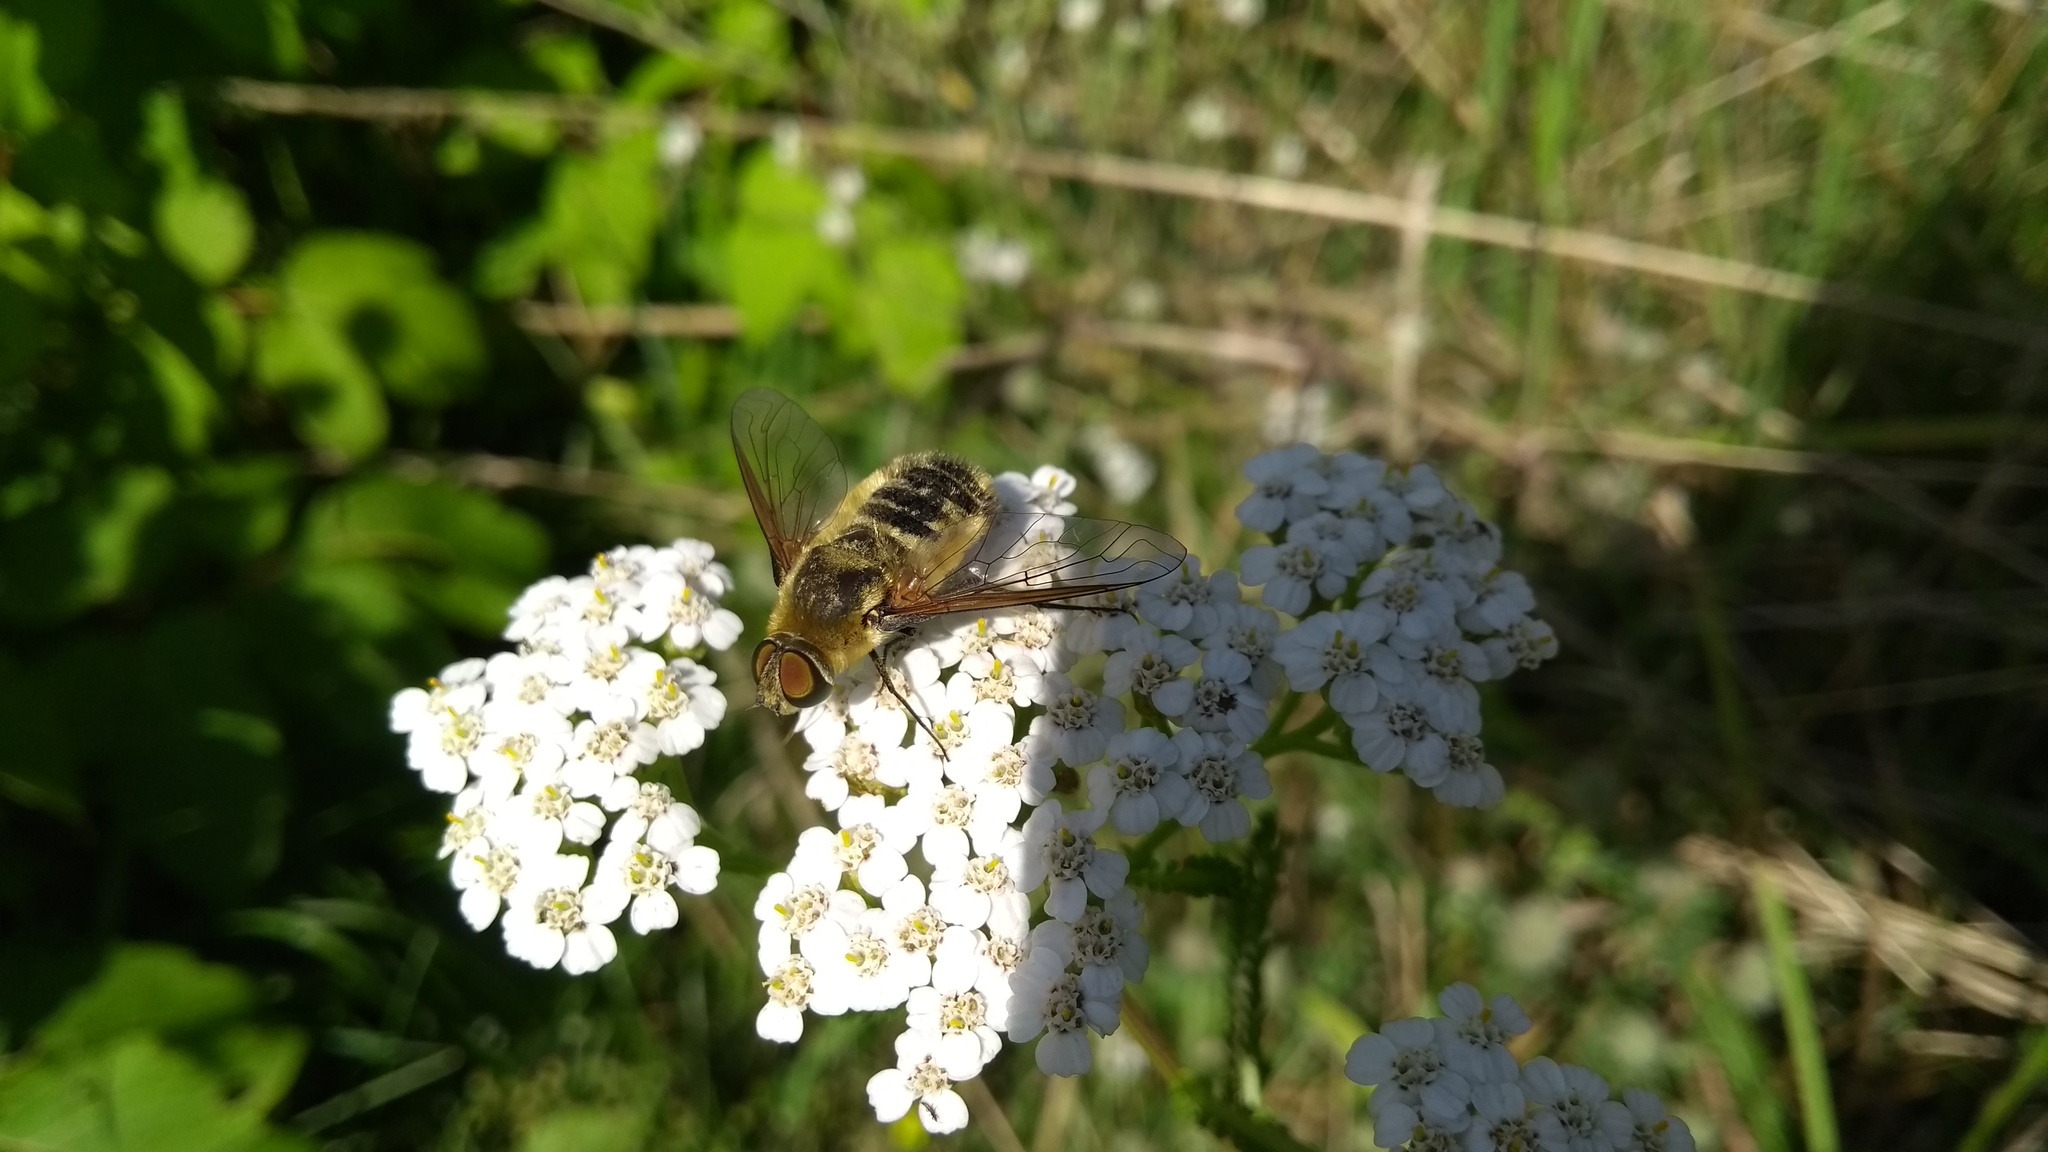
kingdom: Animalia
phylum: Arthropoda
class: Insecta
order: Diptera
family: Bombyliidae
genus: Villa
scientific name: Villa hottentotta
